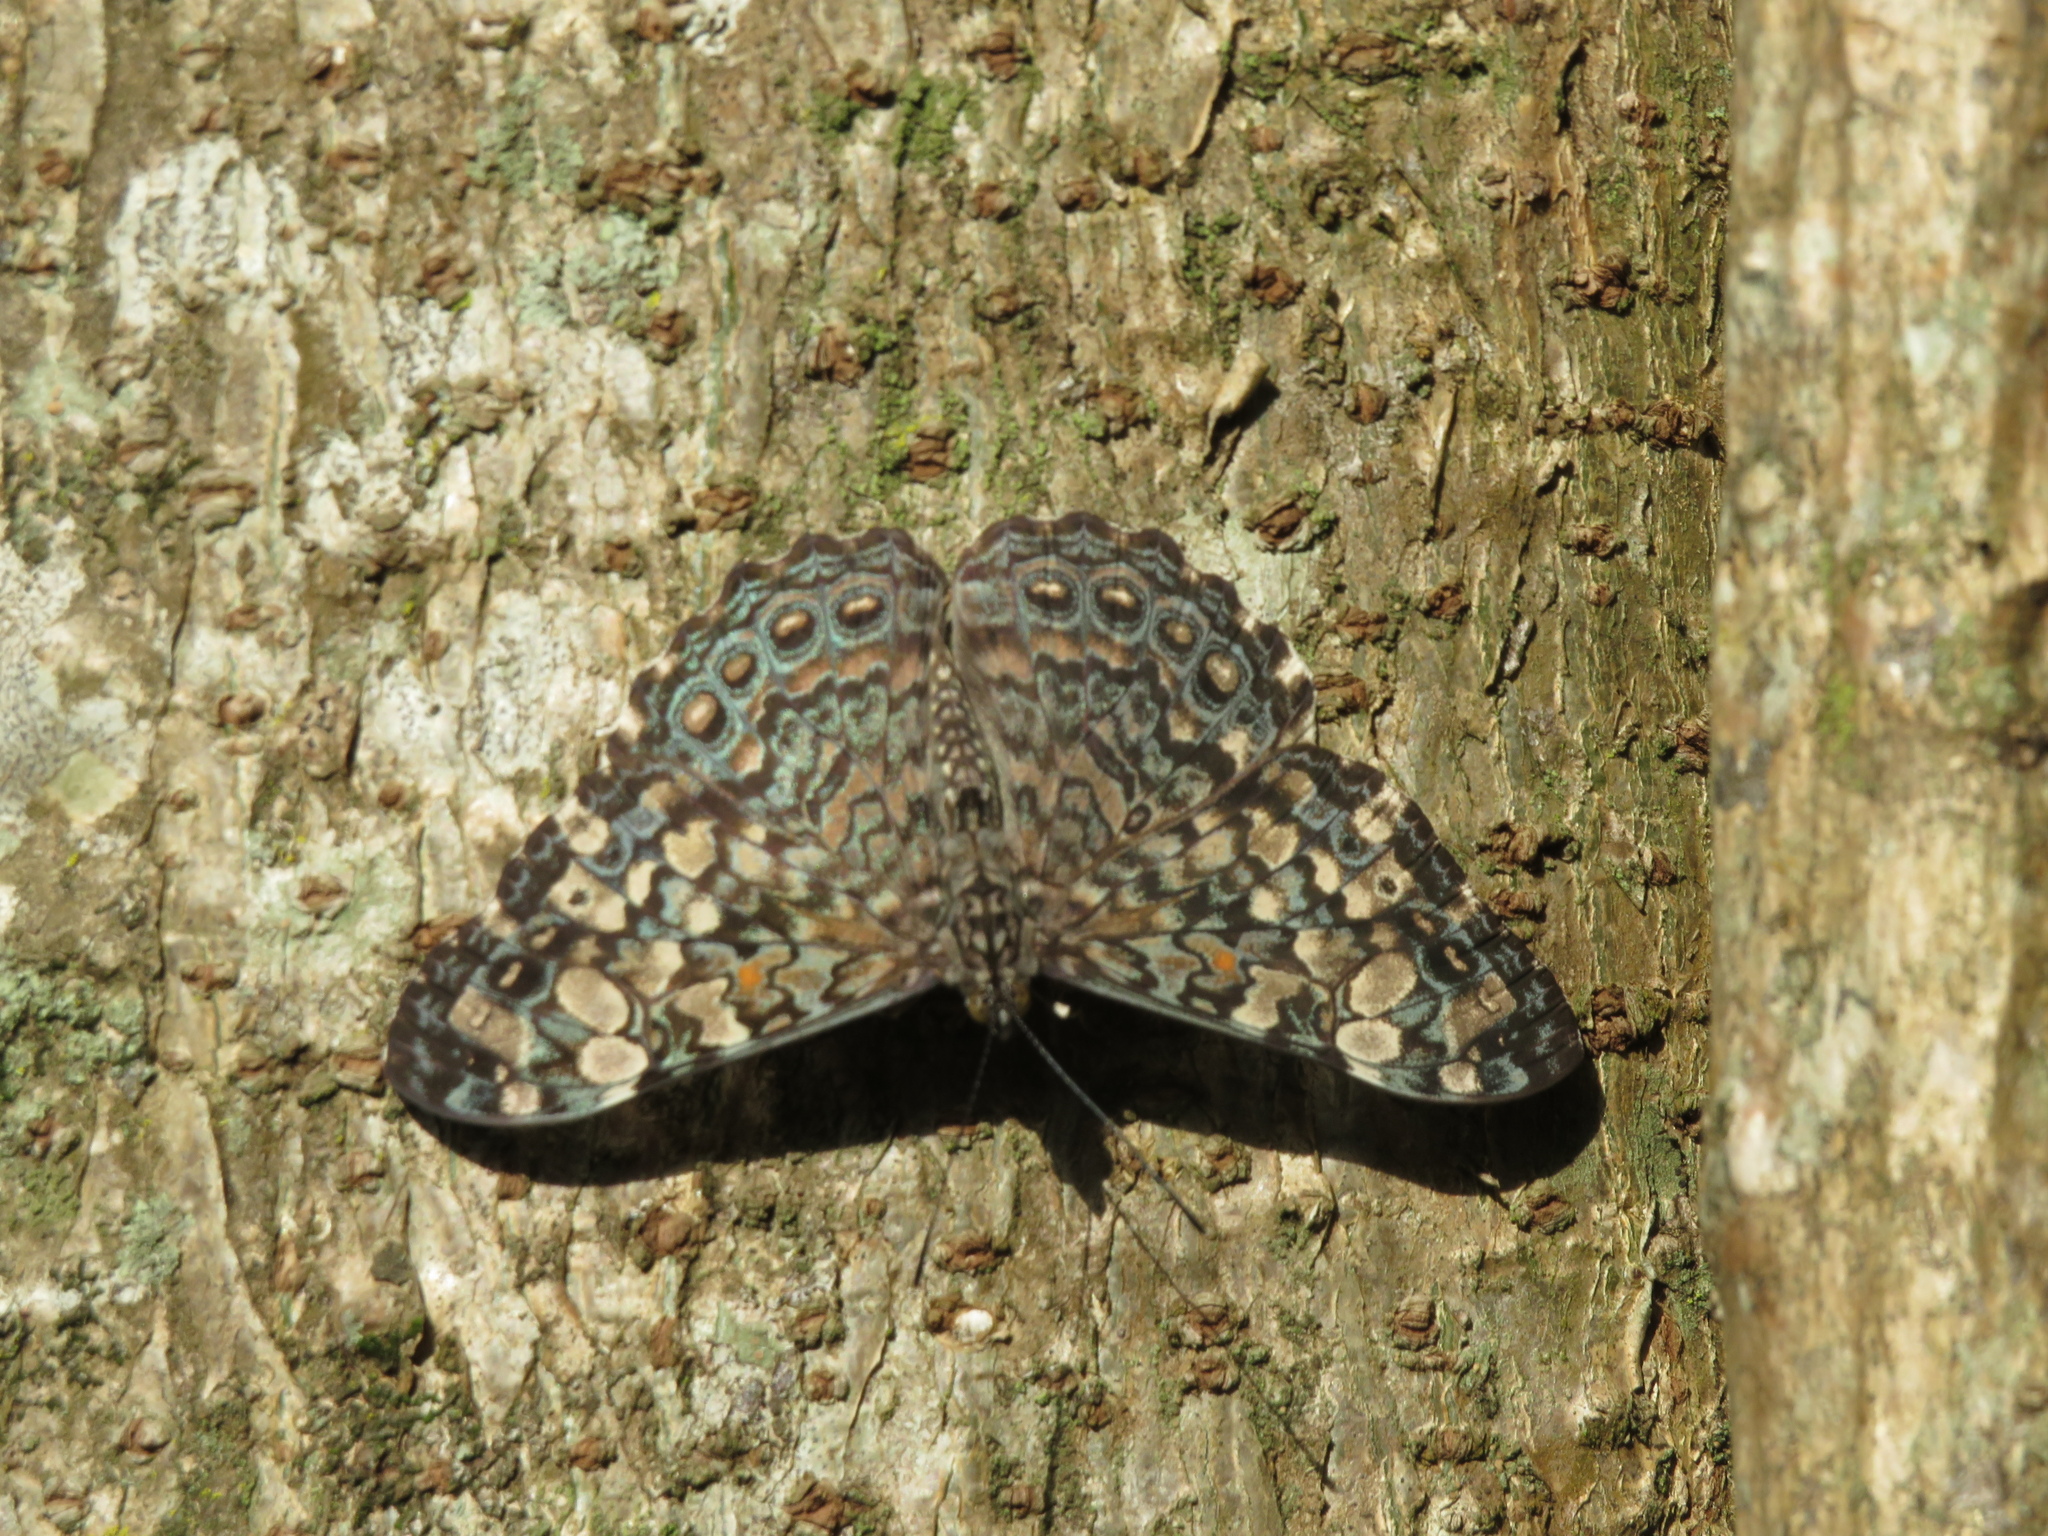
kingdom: Animalia
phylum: Arthropoda
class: Insecta
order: Lepidoptera
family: Nymphalidae
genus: Hamadryas
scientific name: Hamadryas epinome
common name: Epinome cracker
